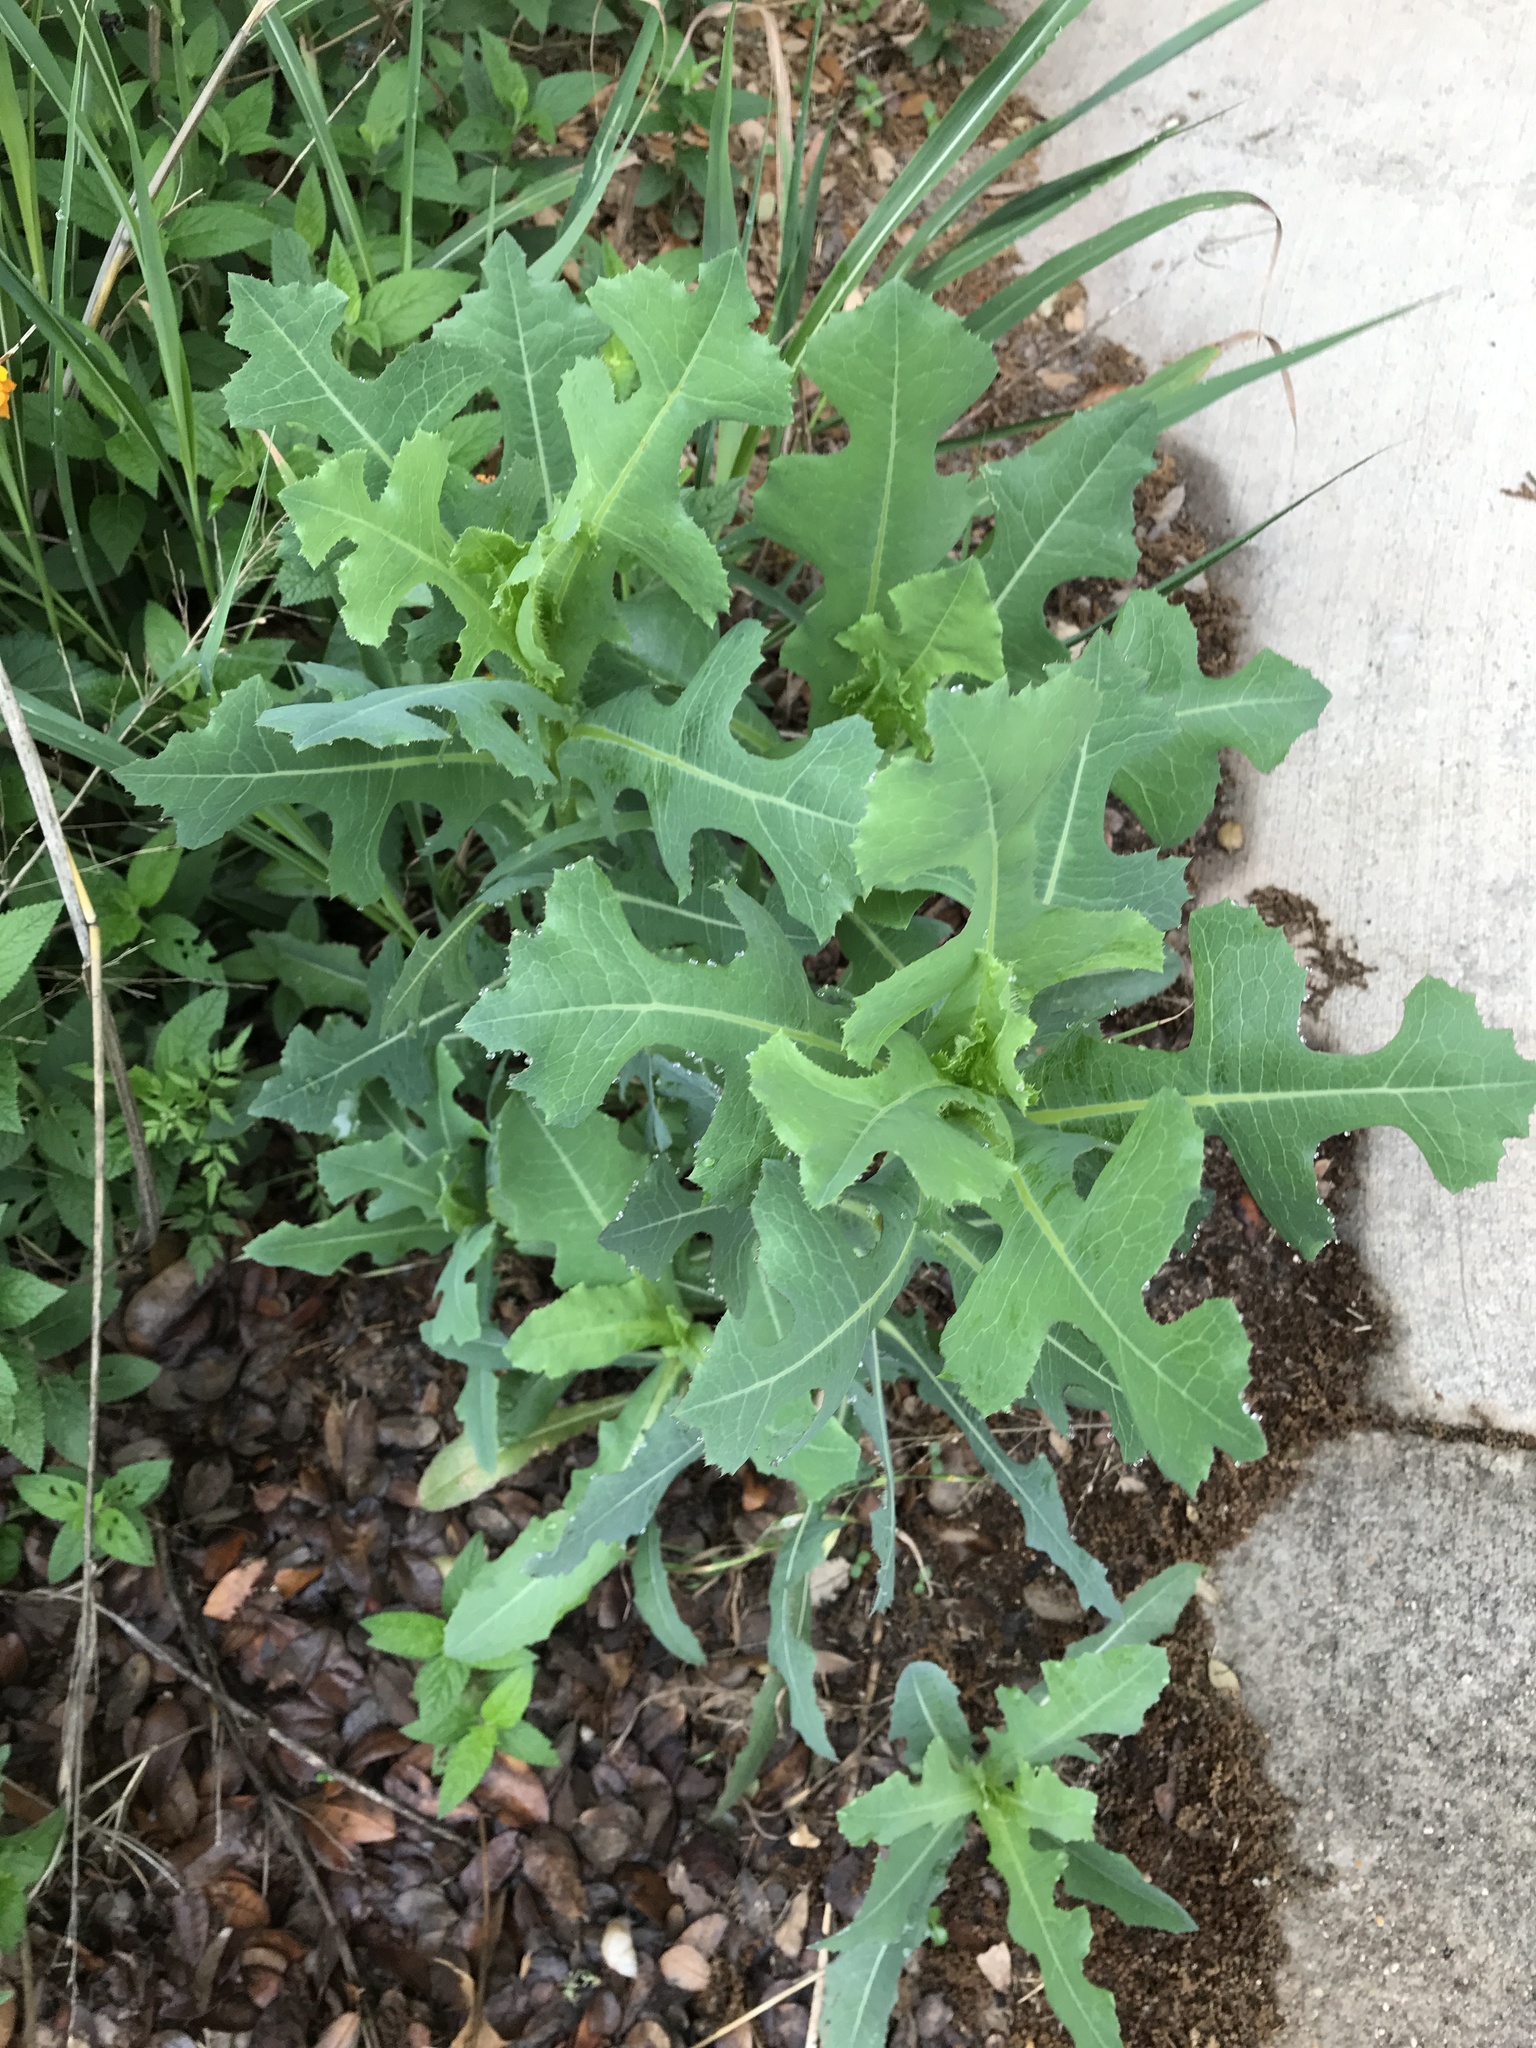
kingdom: Plantae
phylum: Tracheophyta
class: Magnoliopsida
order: Asterales
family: Asteraceae
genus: Lactuca
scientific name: Lactuca serriola
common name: Prickly lettuce
